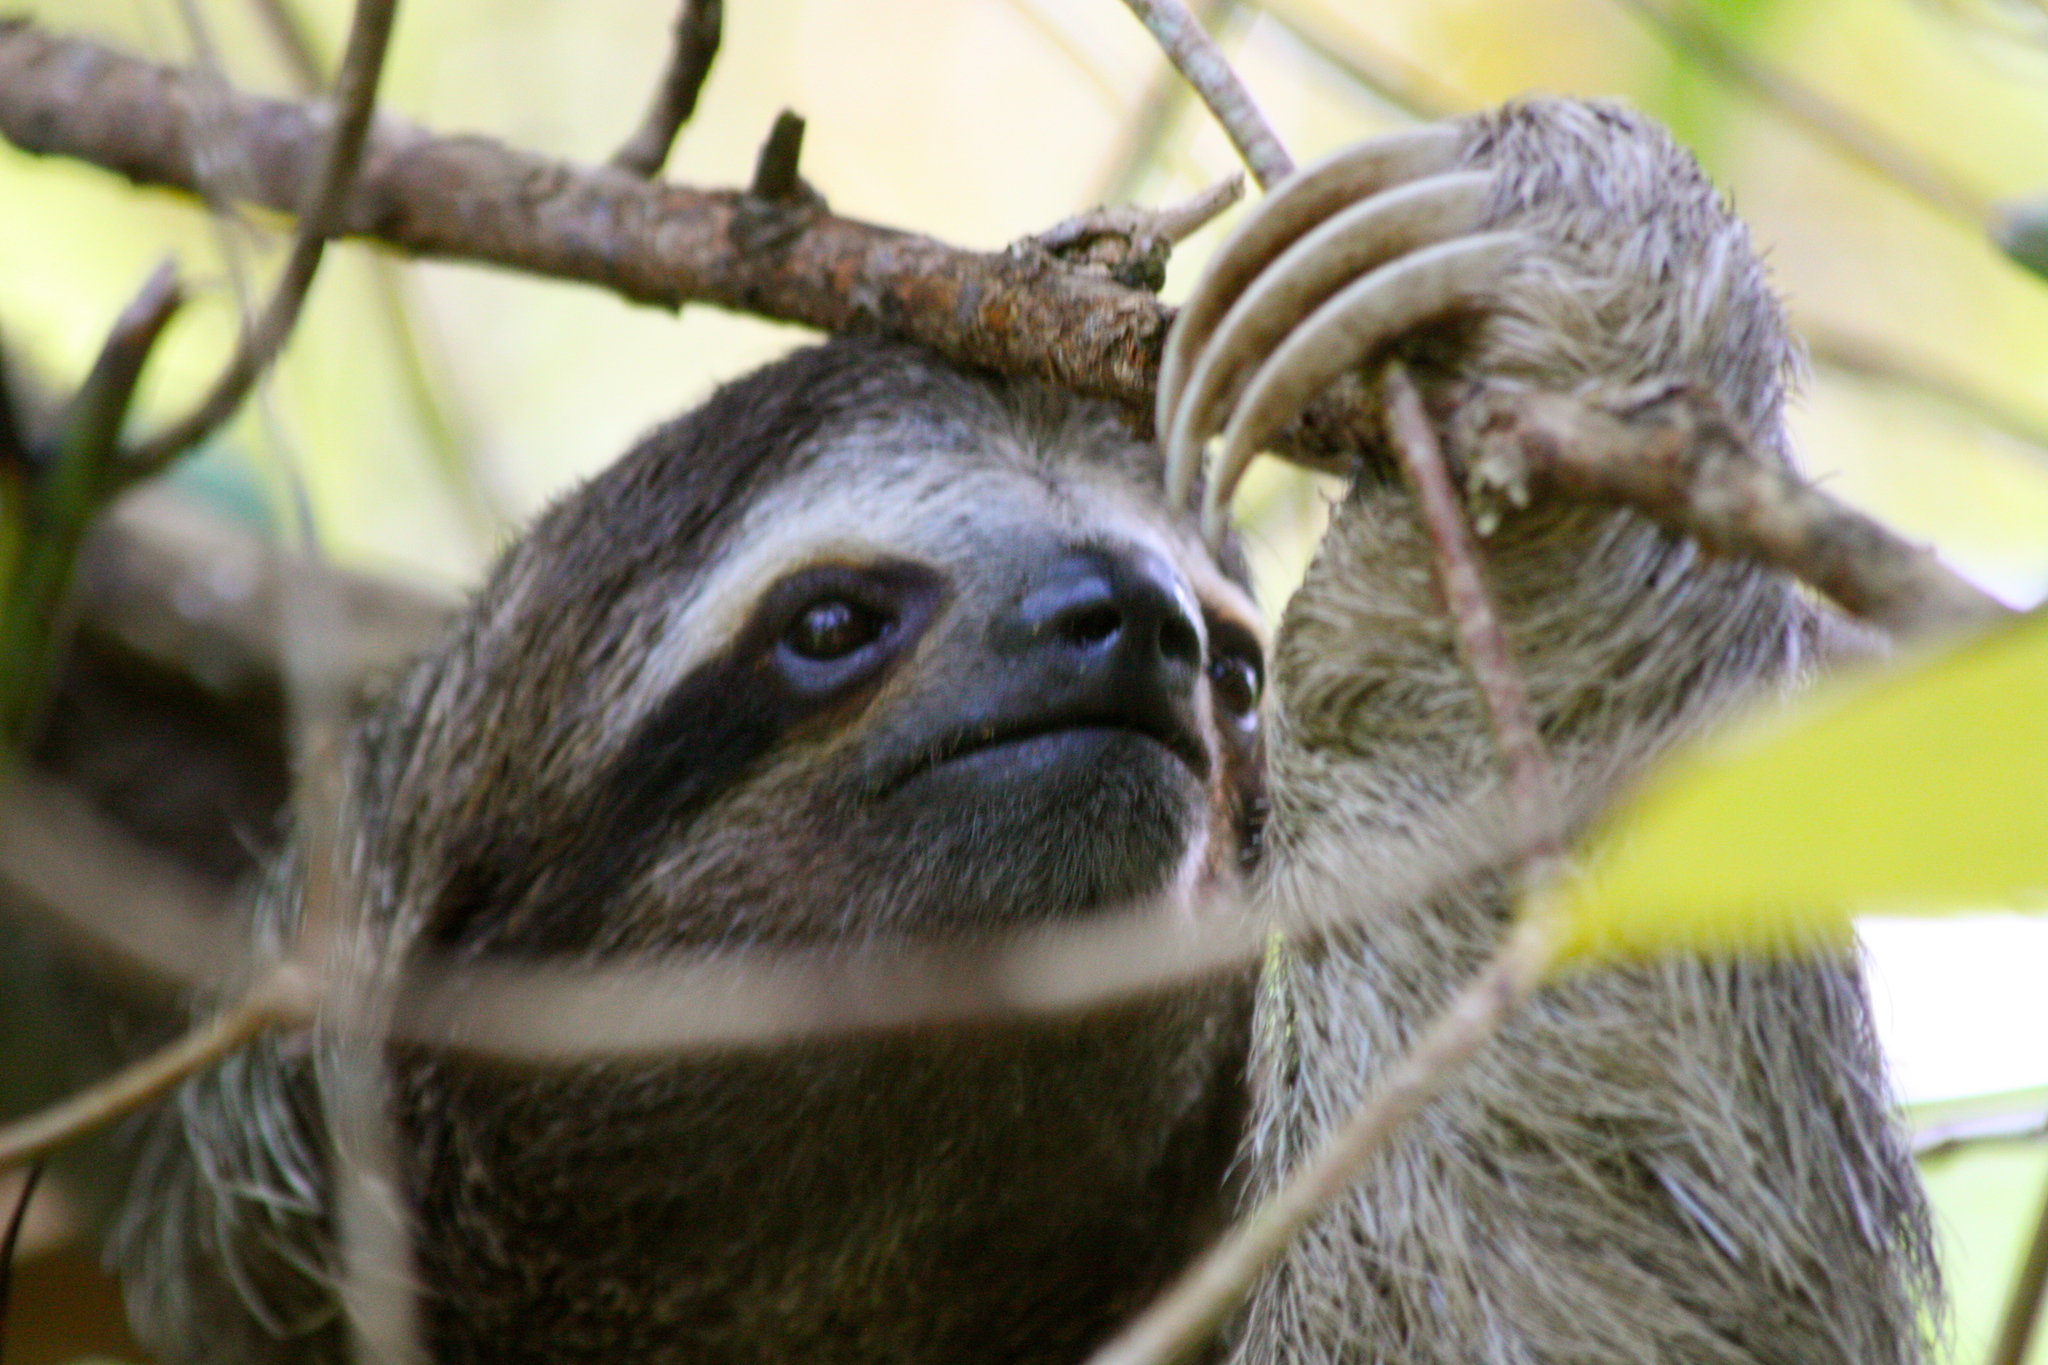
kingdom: Animalia
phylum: Chordata
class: Mammalia
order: Pilosa
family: Bradypodidae
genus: Bradypus
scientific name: Bradypus variegatus
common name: Brown-throated three-toed sloth
